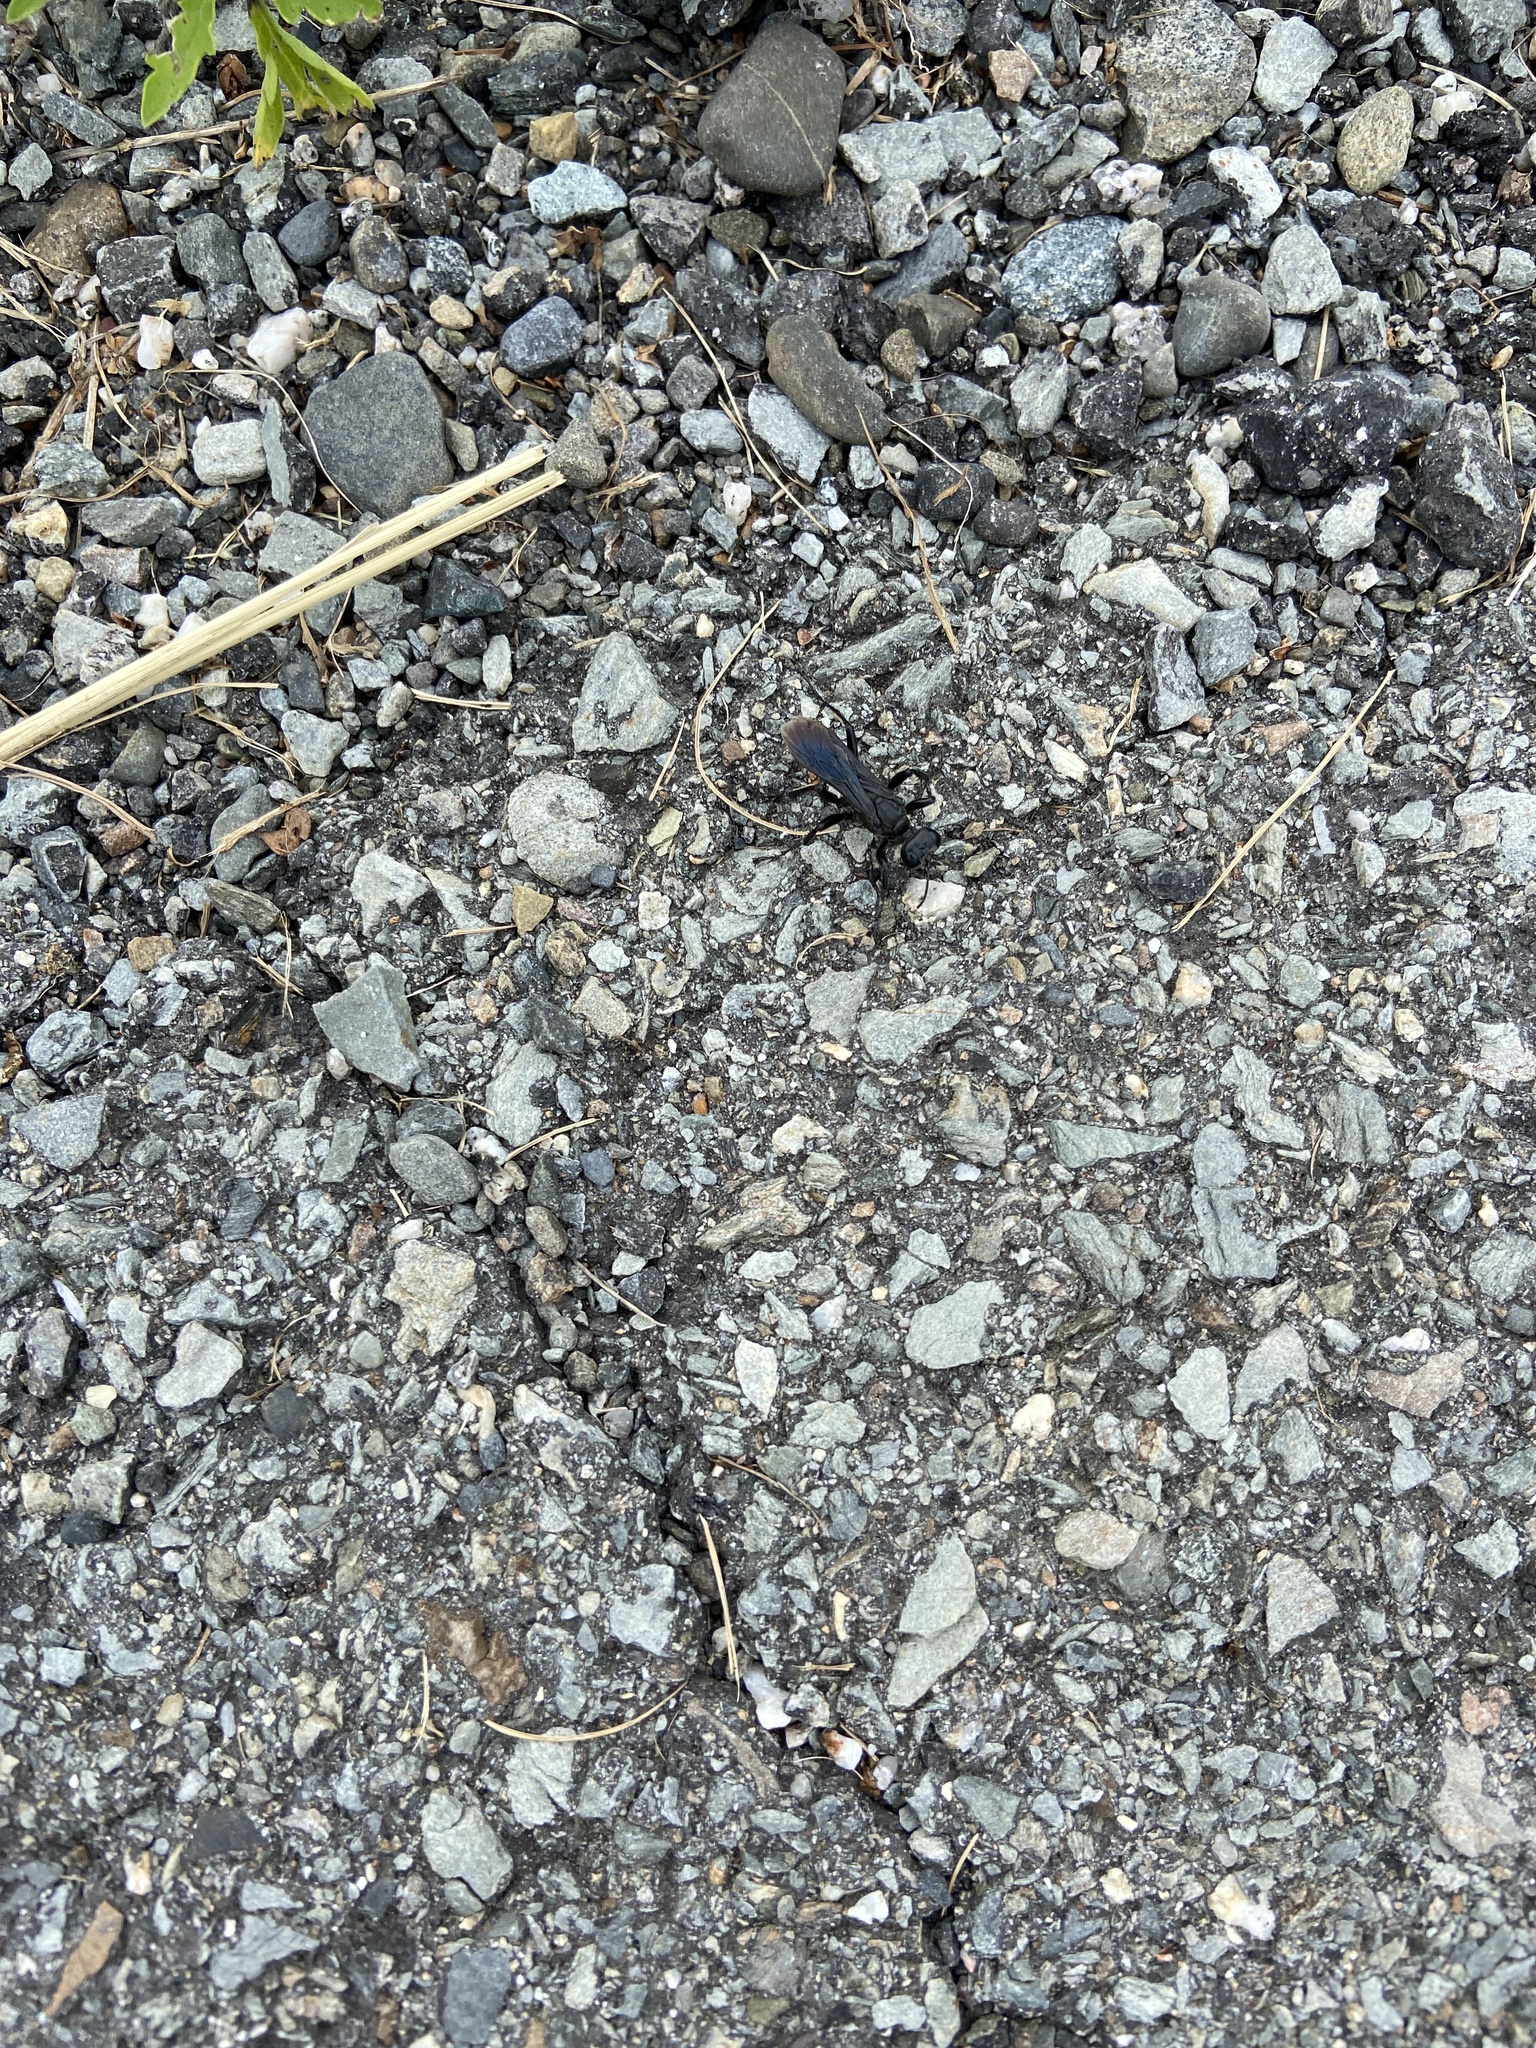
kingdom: Animalia
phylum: Arthropoda
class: Insecta
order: Hymenoptera
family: Sphecidae
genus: Prionyx
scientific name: Prionyx atratus
